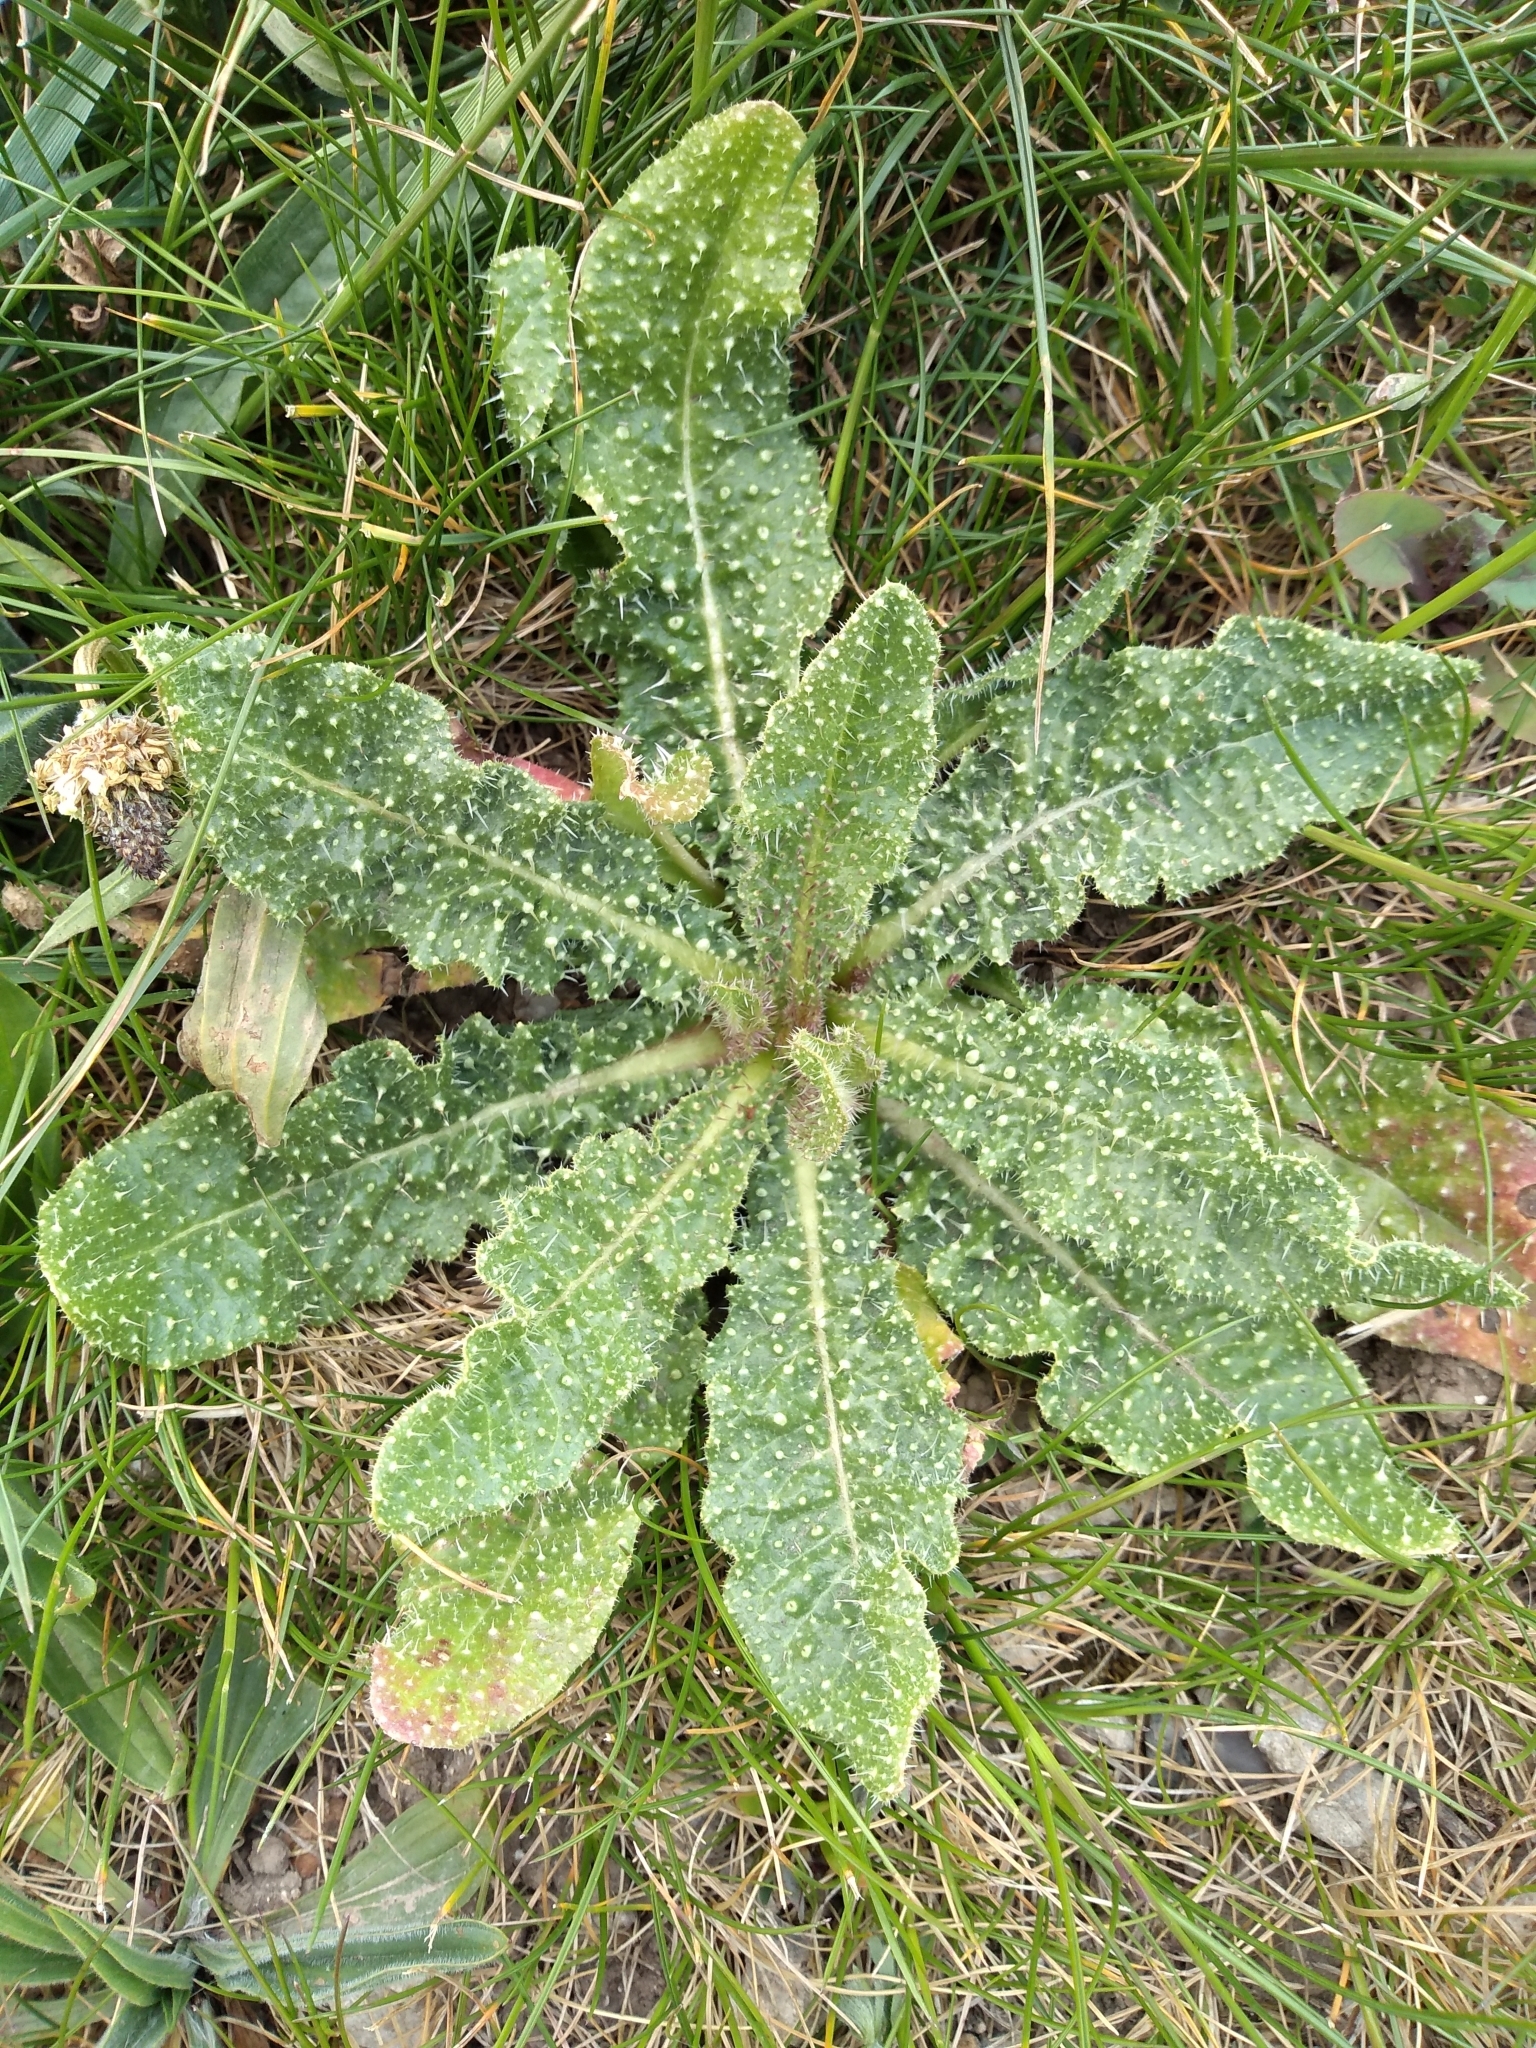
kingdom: Plantae
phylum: Tracheophyta
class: Magnoliopsida
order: Asterales
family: Asteraceae
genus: Helminthotheca
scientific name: Helminthotheca echioides
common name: Ox-tongue
